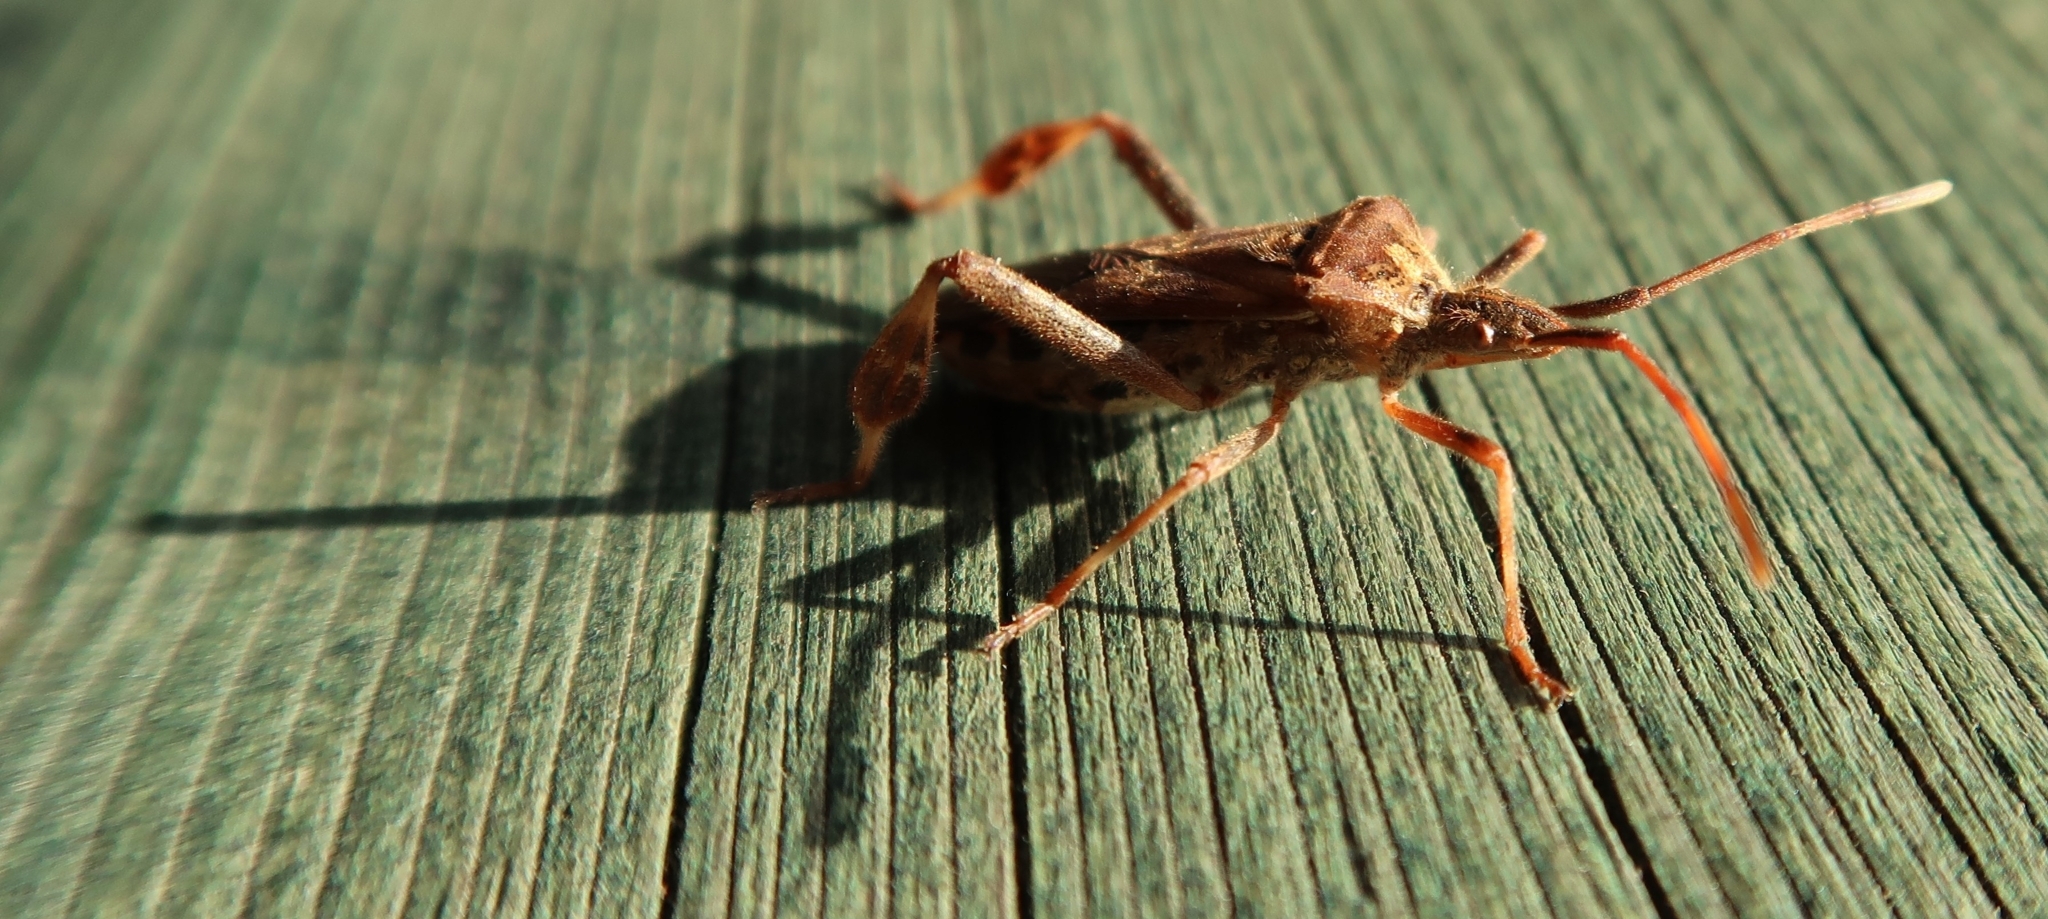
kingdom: Animalia
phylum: Arthropoda
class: Insecta
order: Hemiptera
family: Coreidae
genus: Leptoglossus
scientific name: Leptoglossus occidentalis
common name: Western conifer-seed bug
